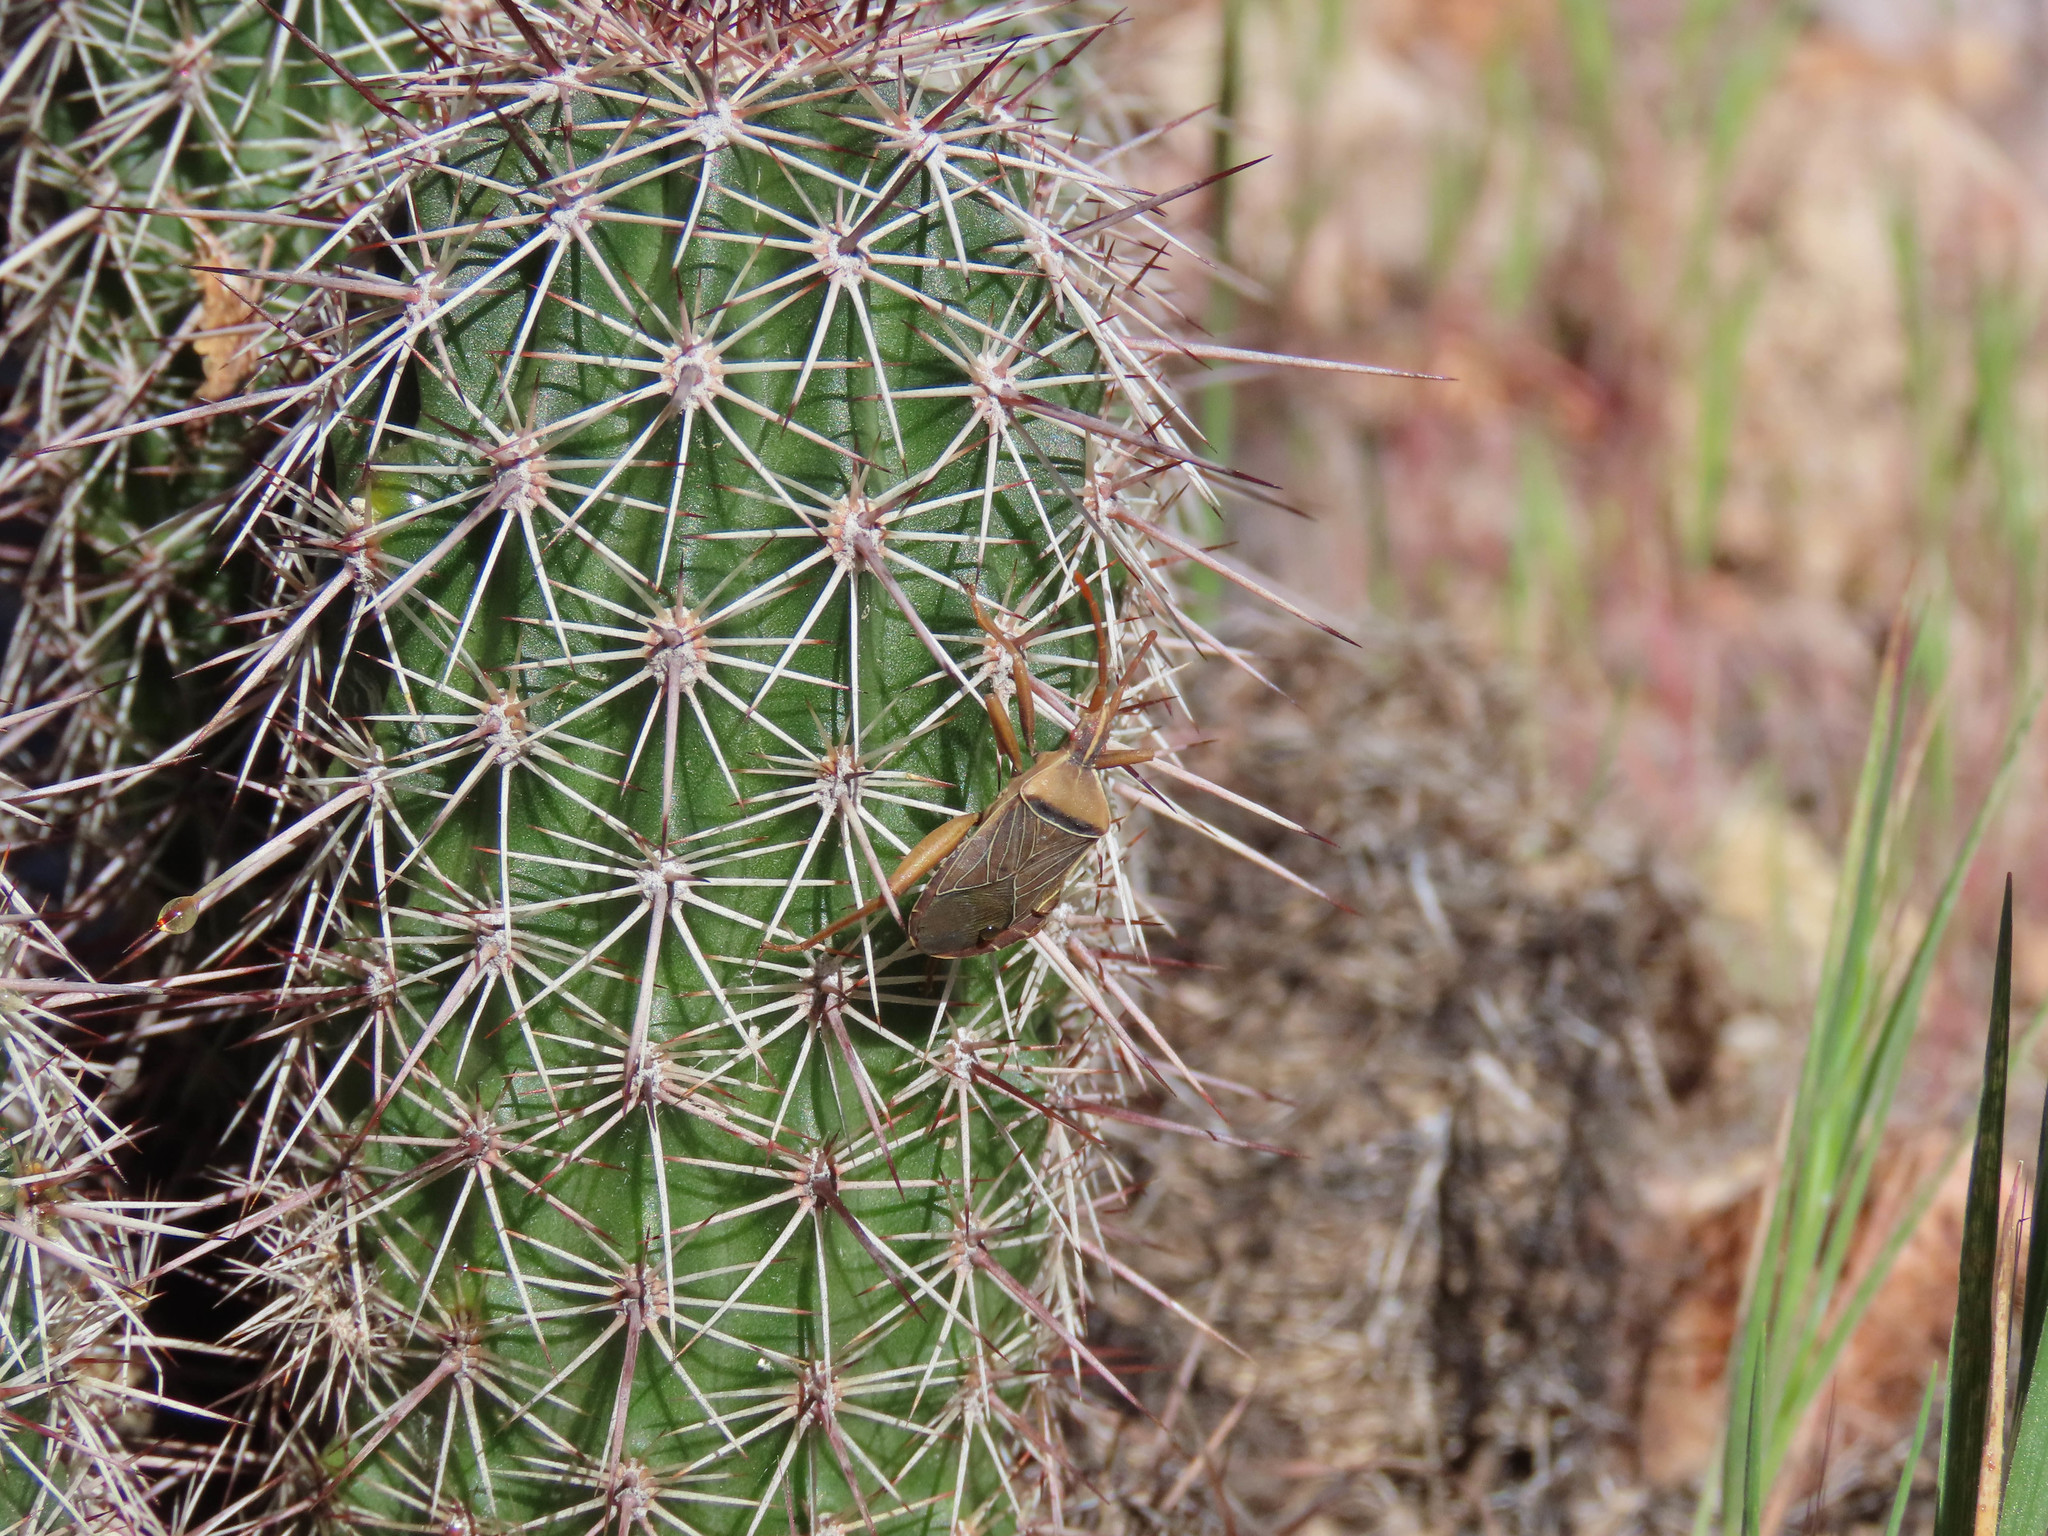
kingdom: Animalia
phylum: Arthropoda
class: Insecta
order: Hemiptera
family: Coreidae
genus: Chelinidea
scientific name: Chelinidea vittiger
